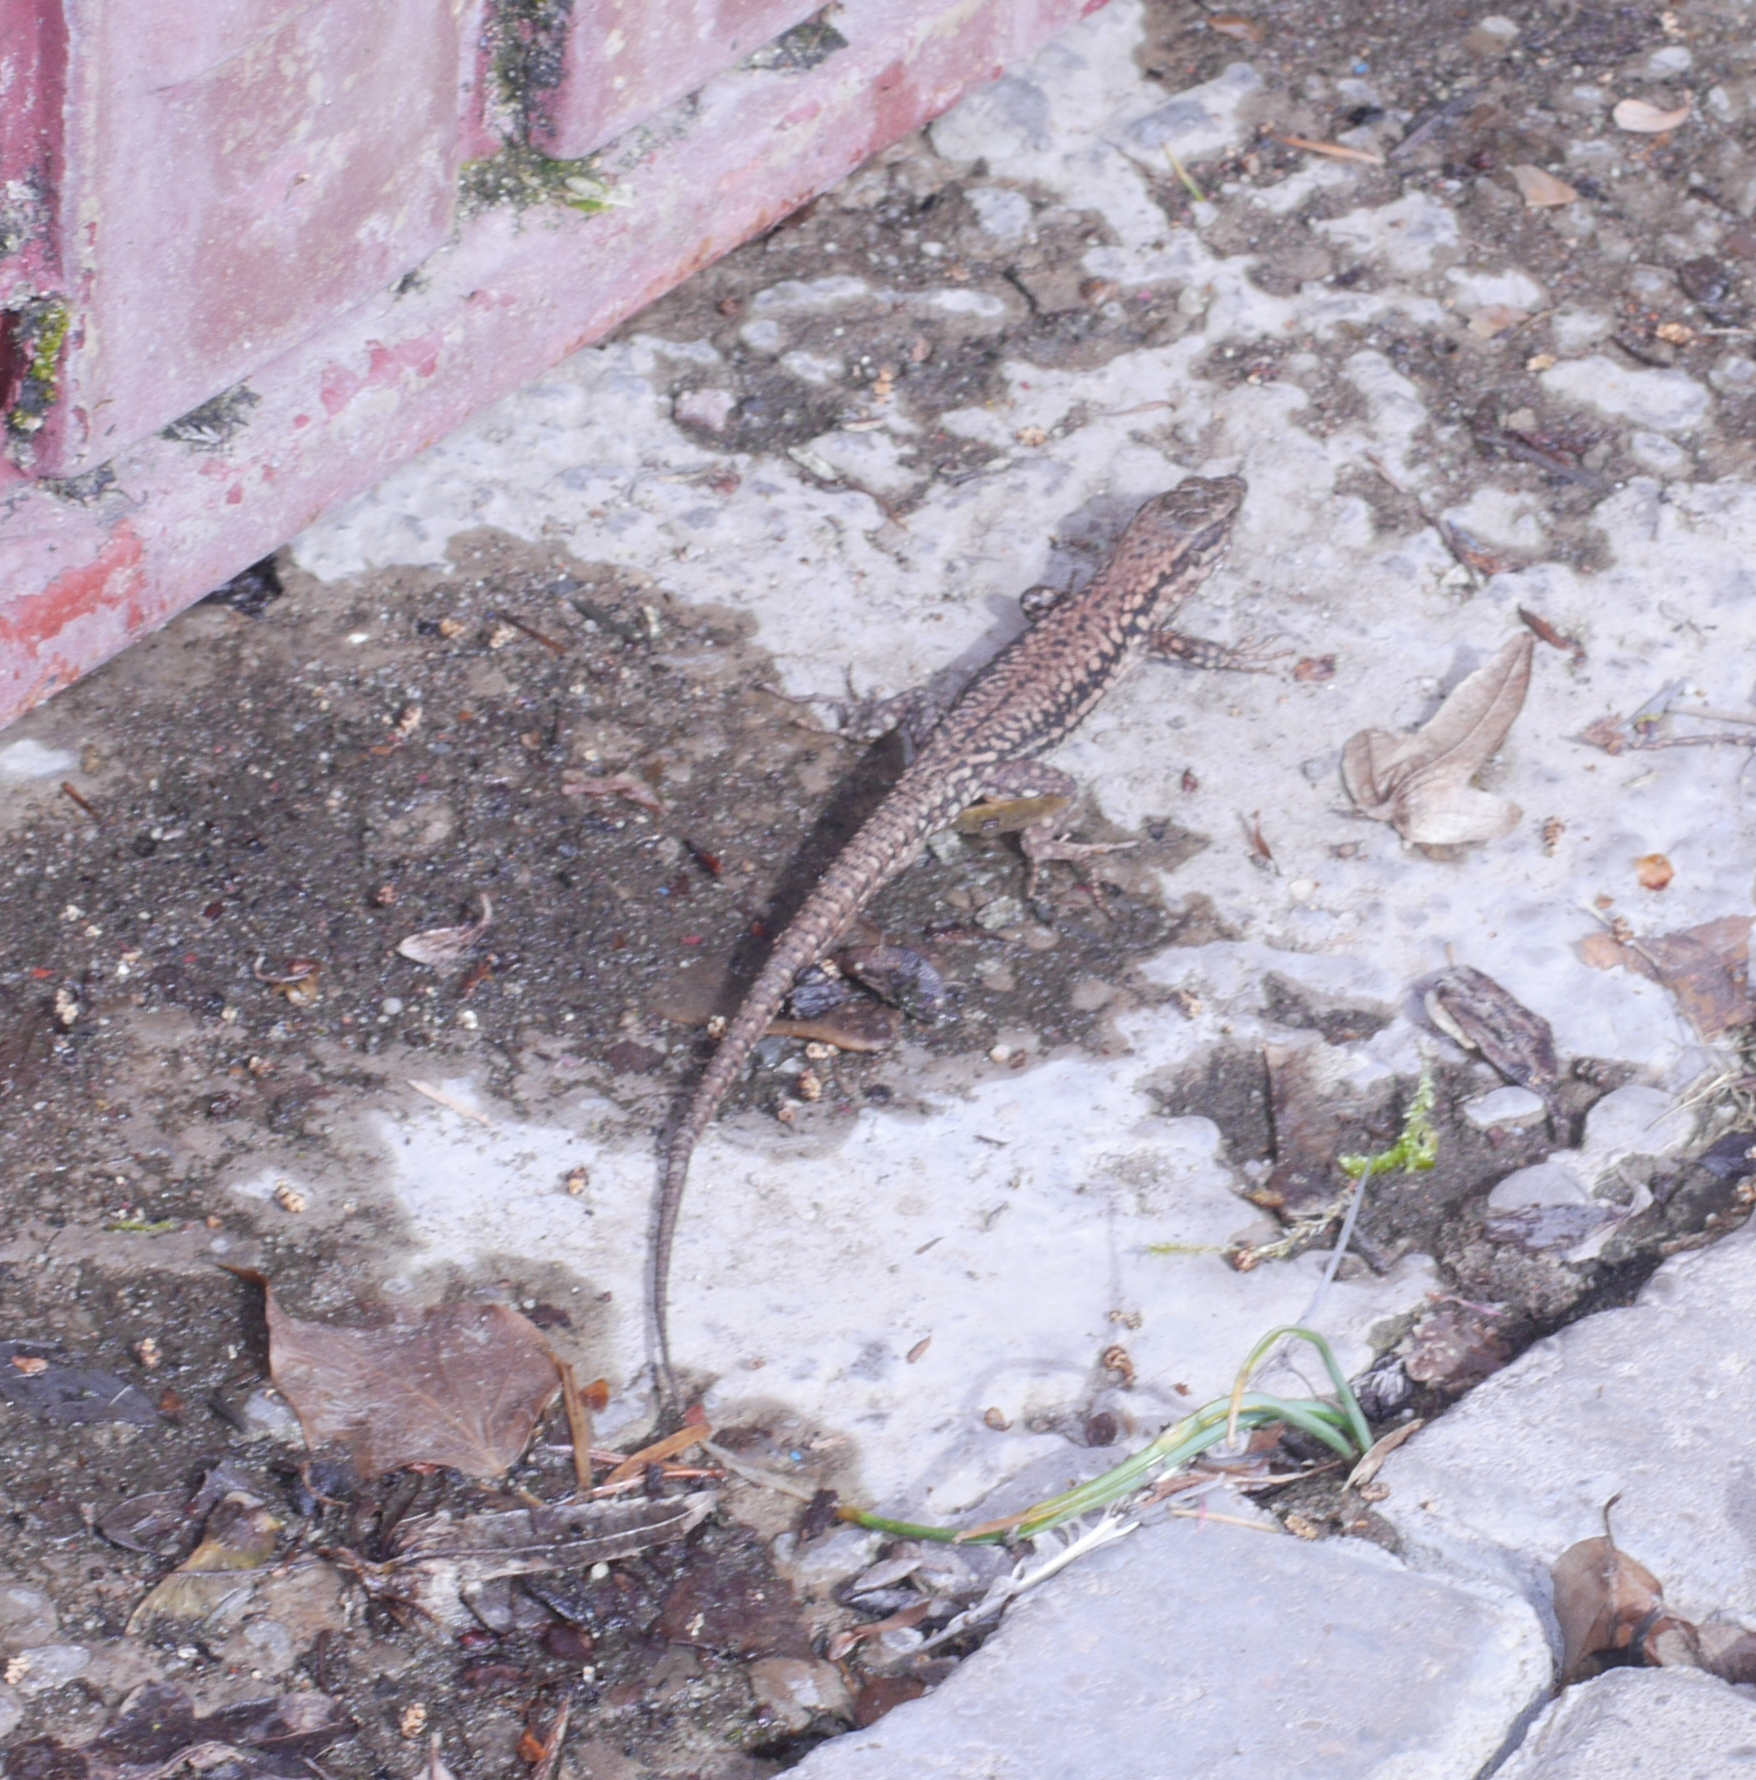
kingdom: Animalia
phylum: Chordata
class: Squamata
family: Lacertidae
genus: Podarcis
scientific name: Podarcis muralis
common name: Common wall lizard
